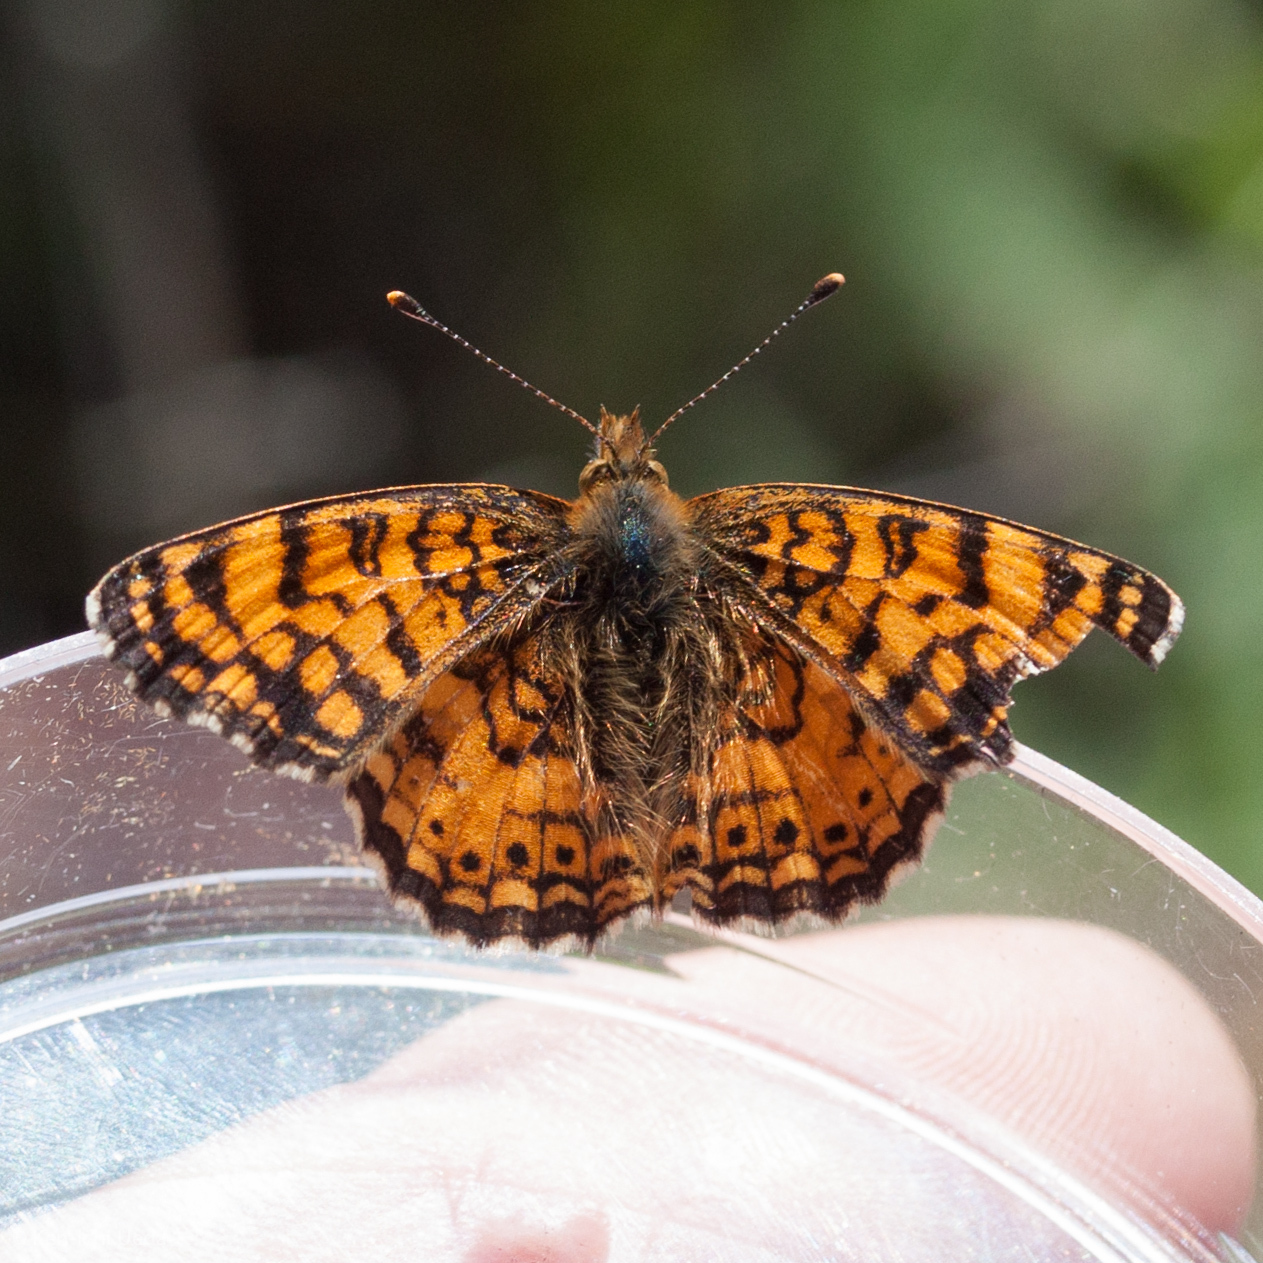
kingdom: Animalia
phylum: Arthropoda
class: Insecta
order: Lepidoptera
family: Nymphalidae
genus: Eresia
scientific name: Eresia aveyrona
